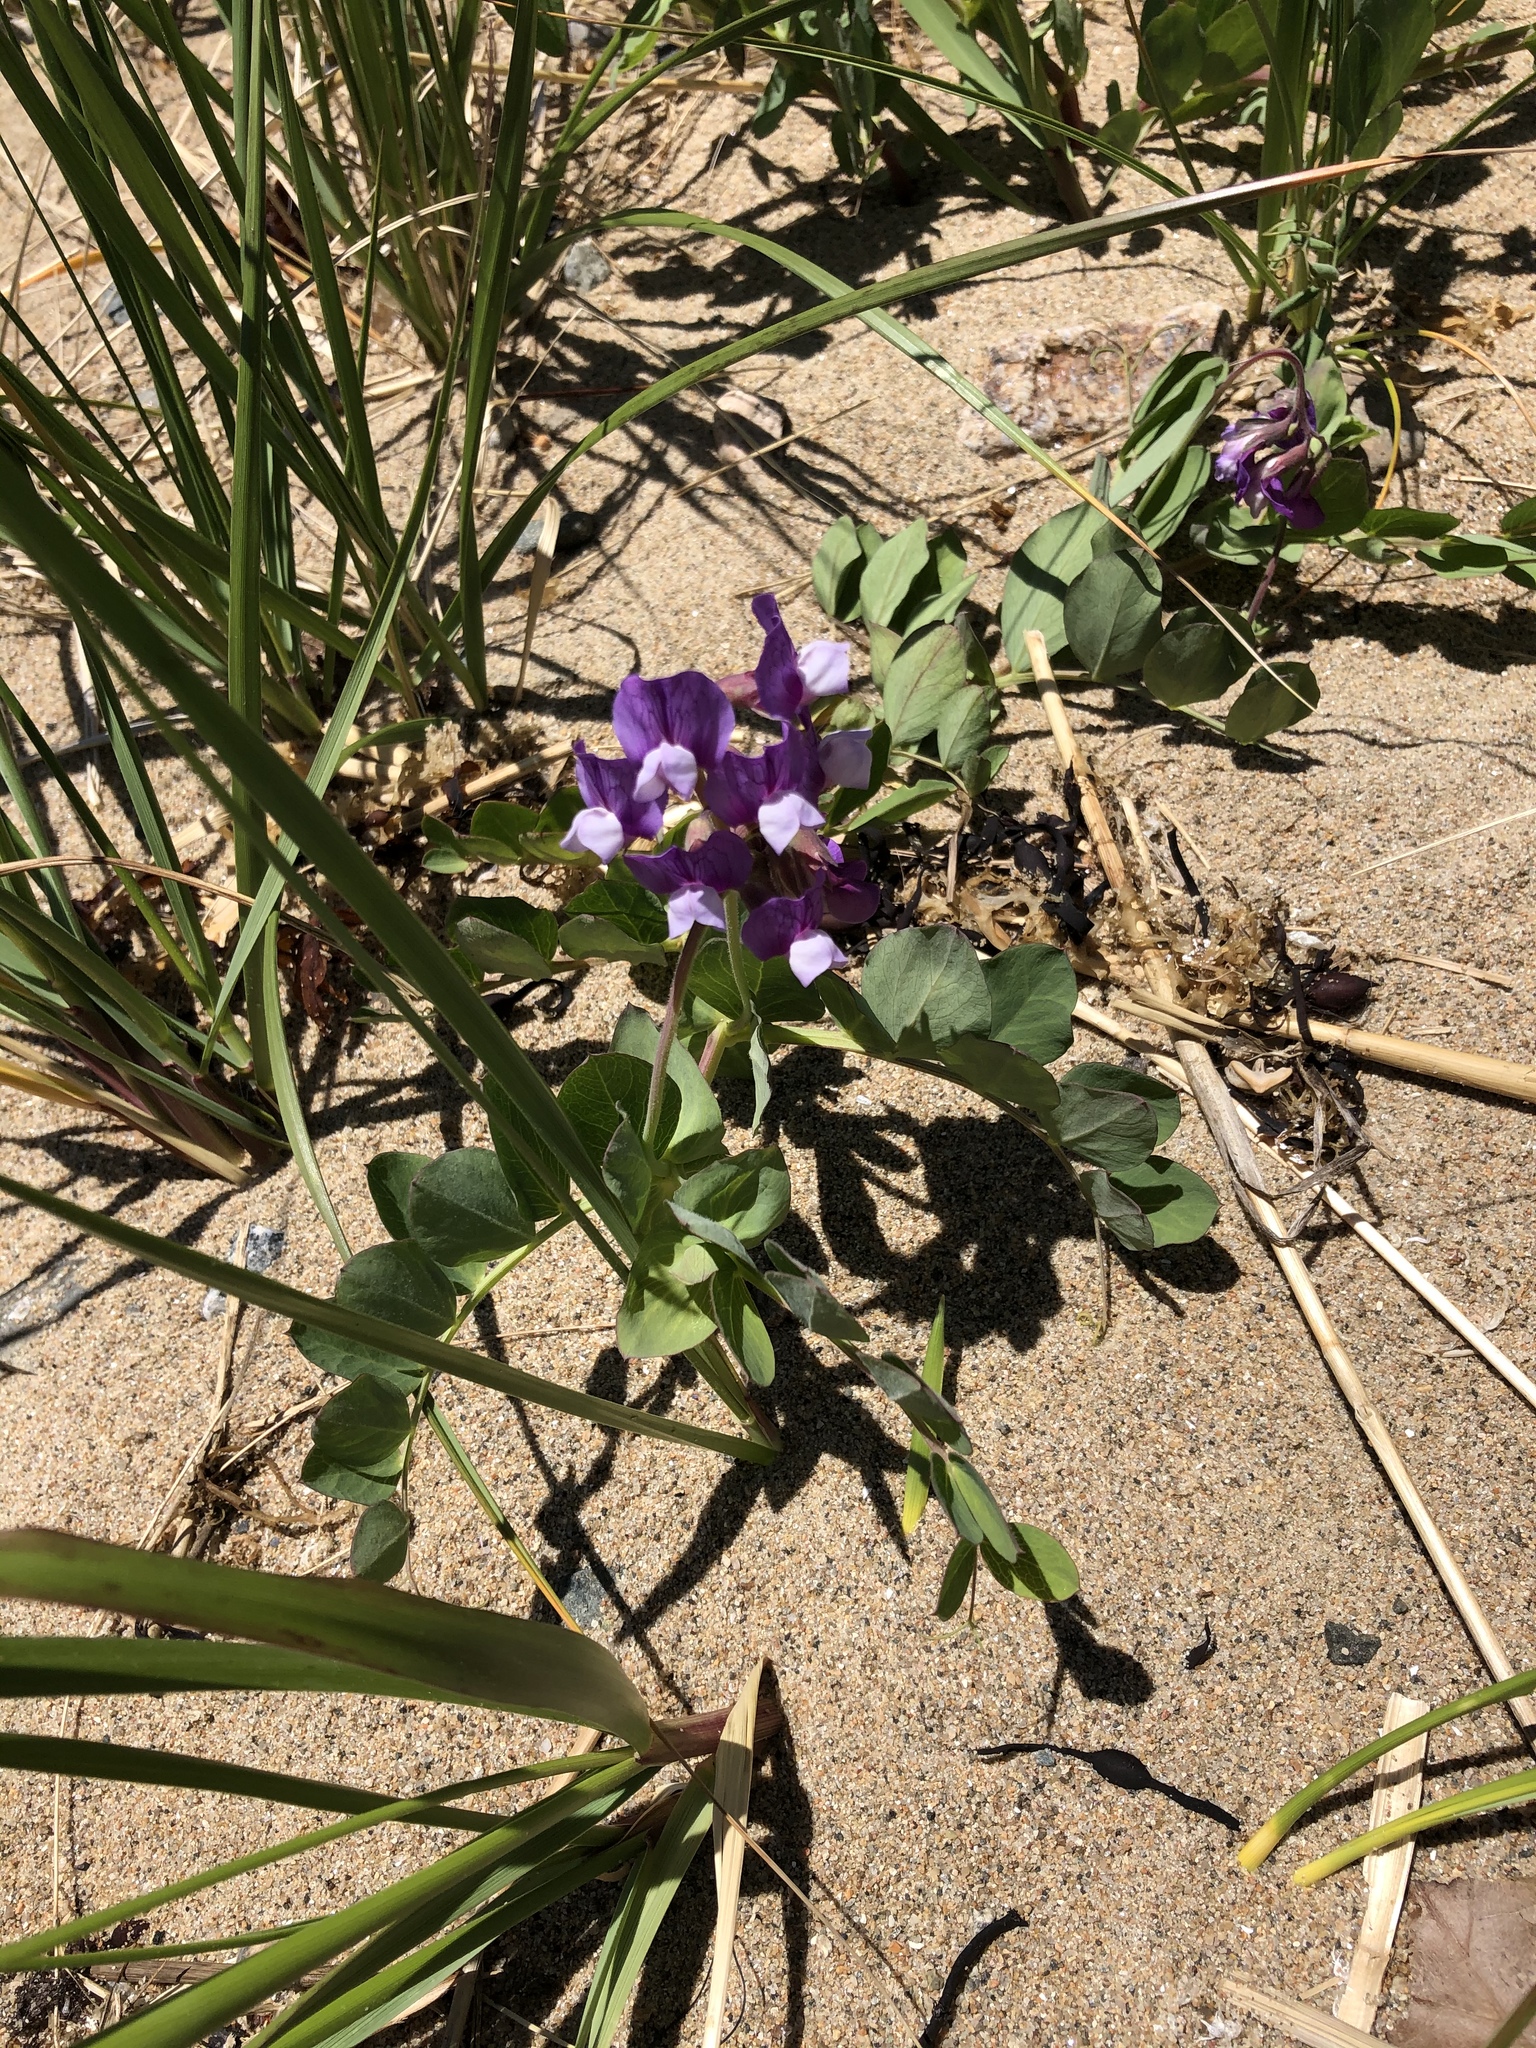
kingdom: Plantae
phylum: Tracheophyta
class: Magnoliopsida
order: Fabales
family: Fabaceae
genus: Lathyrus
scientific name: Lathyrus japonicus
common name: Sea pea
